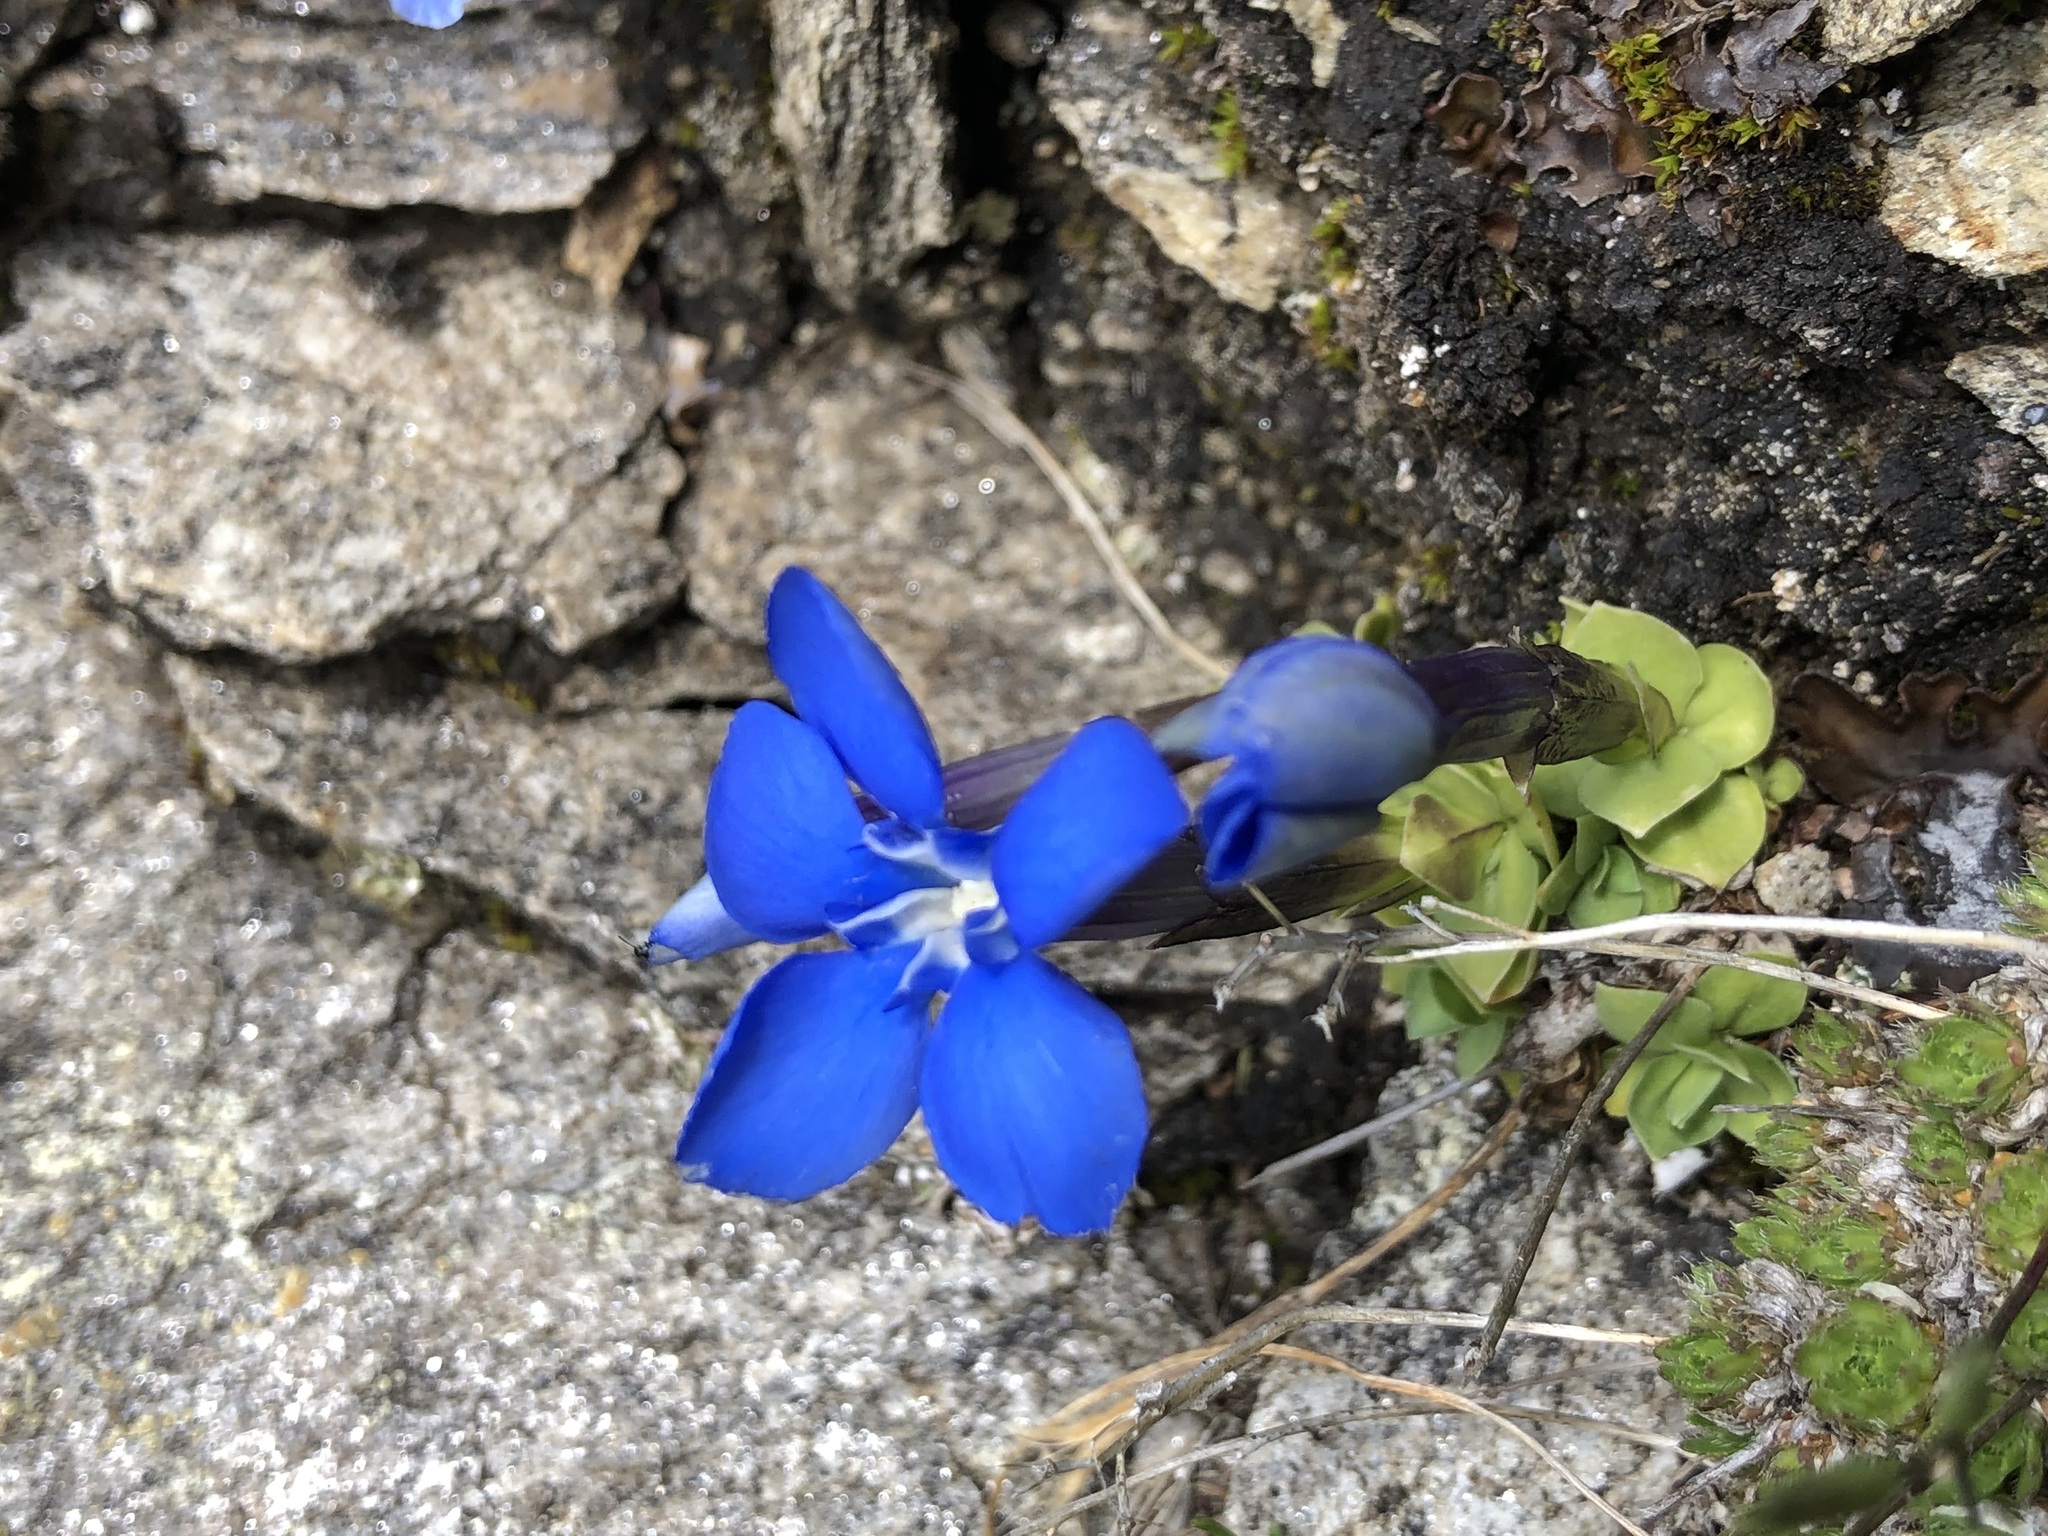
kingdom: Plantae
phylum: Tracheophyta
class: Magnoliopsida
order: Gentianales
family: Gentianaceae
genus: Gentiana
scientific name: Gentiana brachyphylla
